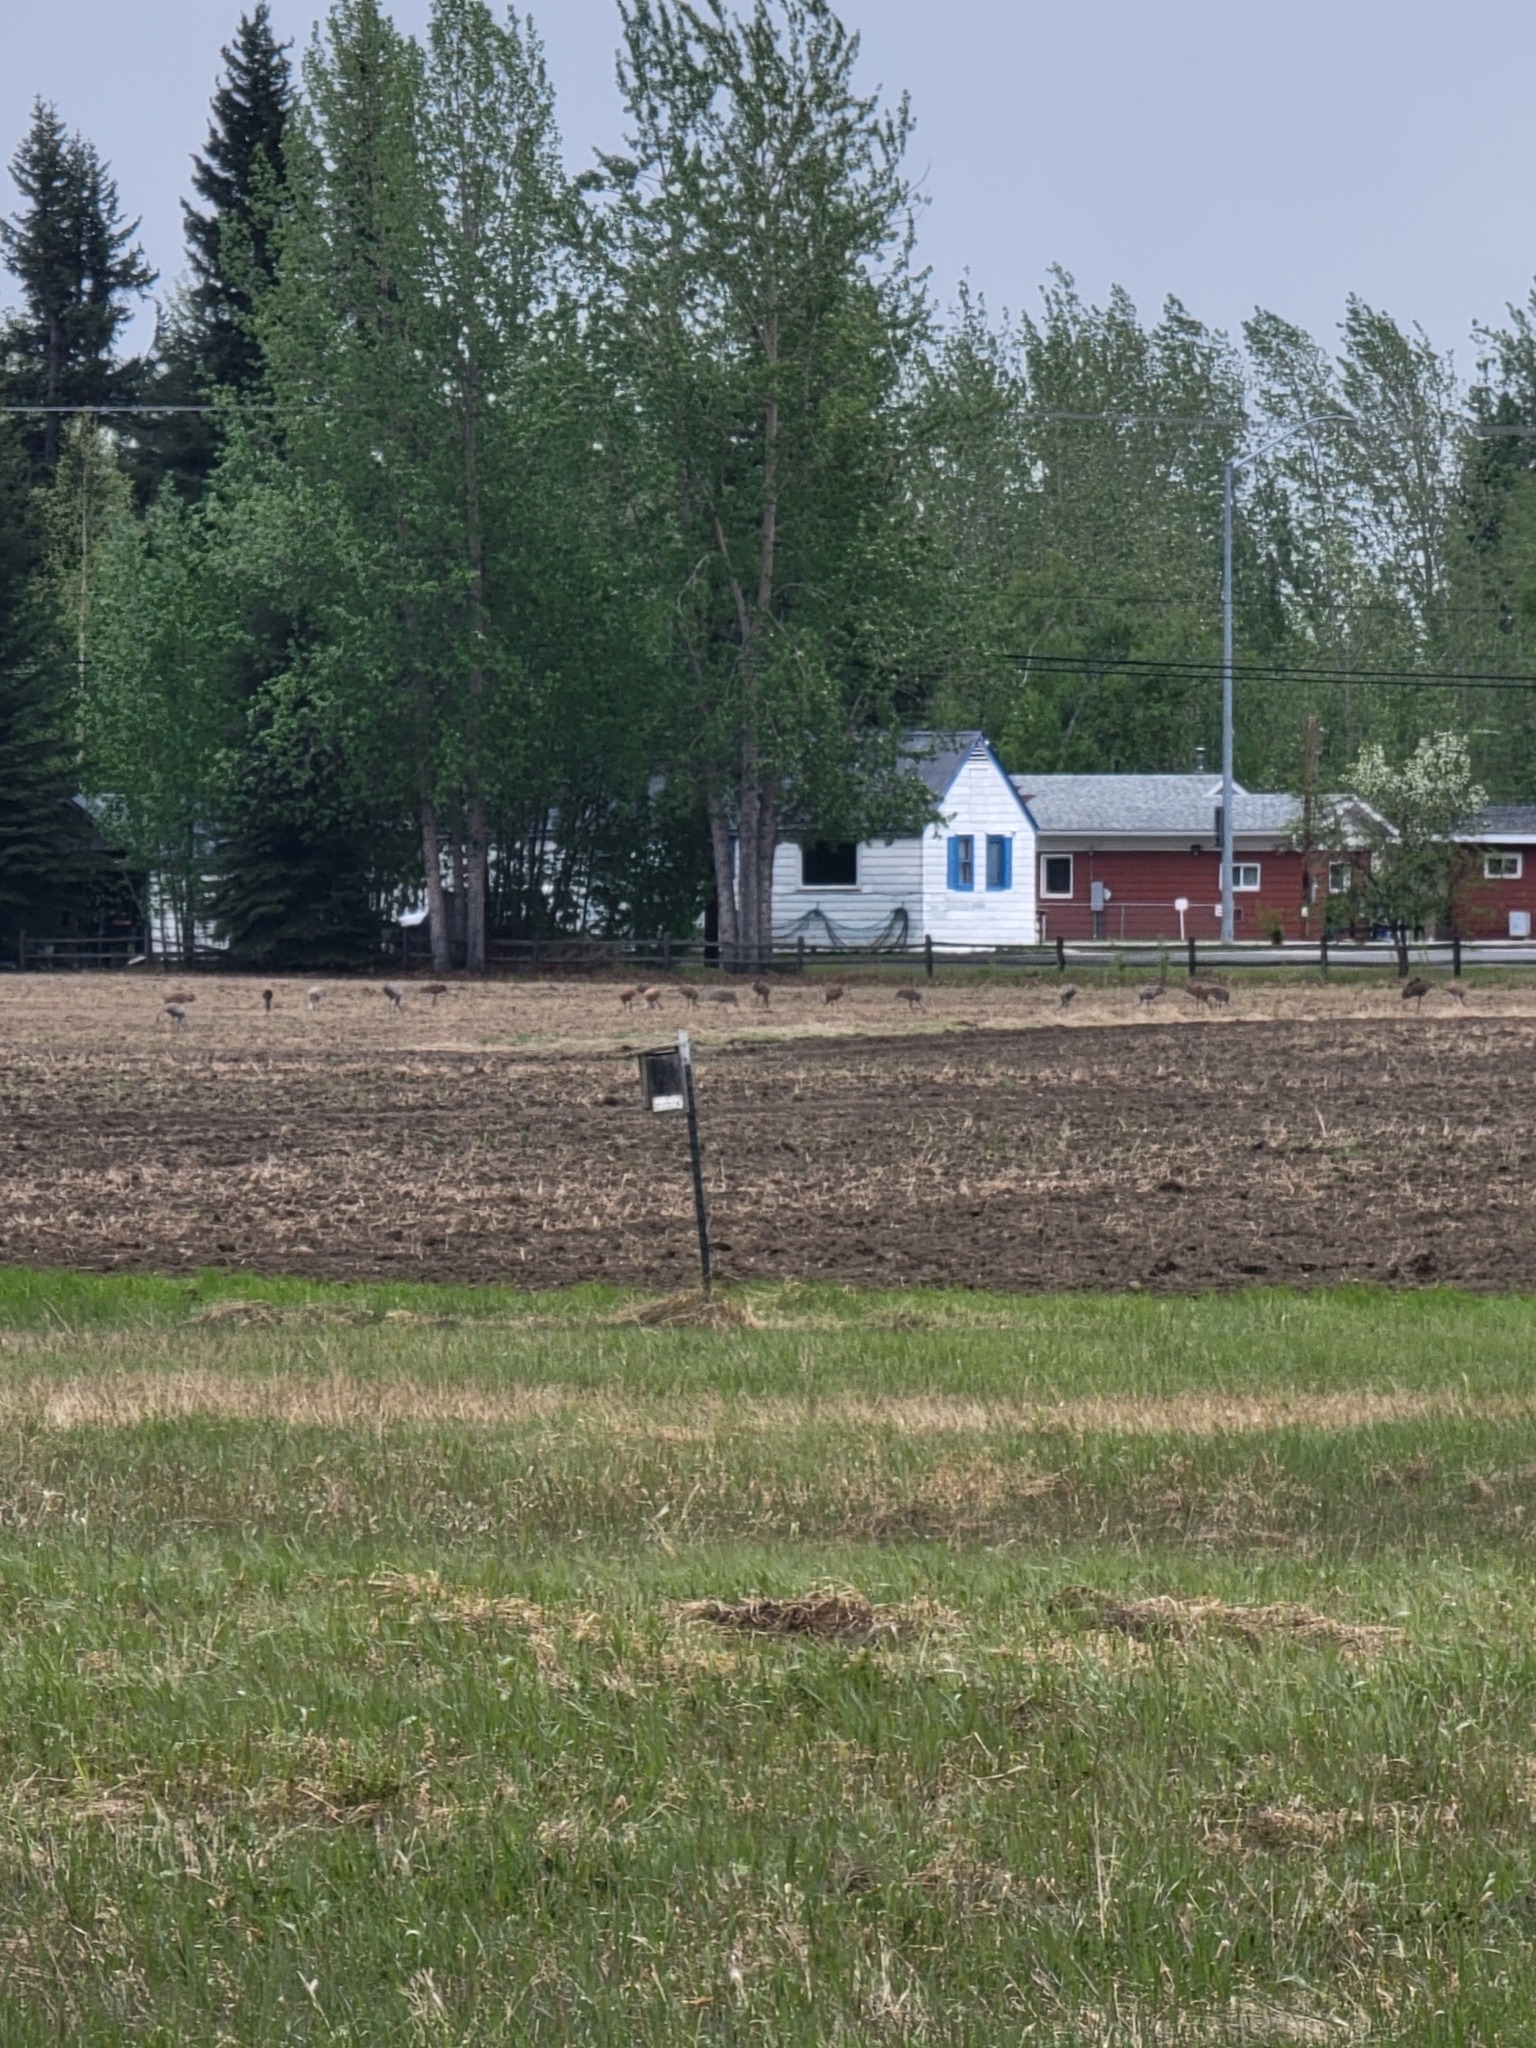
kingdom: Animalia
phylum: Chordata
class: Aves
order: Gruiformes
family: Gruidae
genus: Grus
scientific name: Grus canadensis
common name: Sandhill crane
